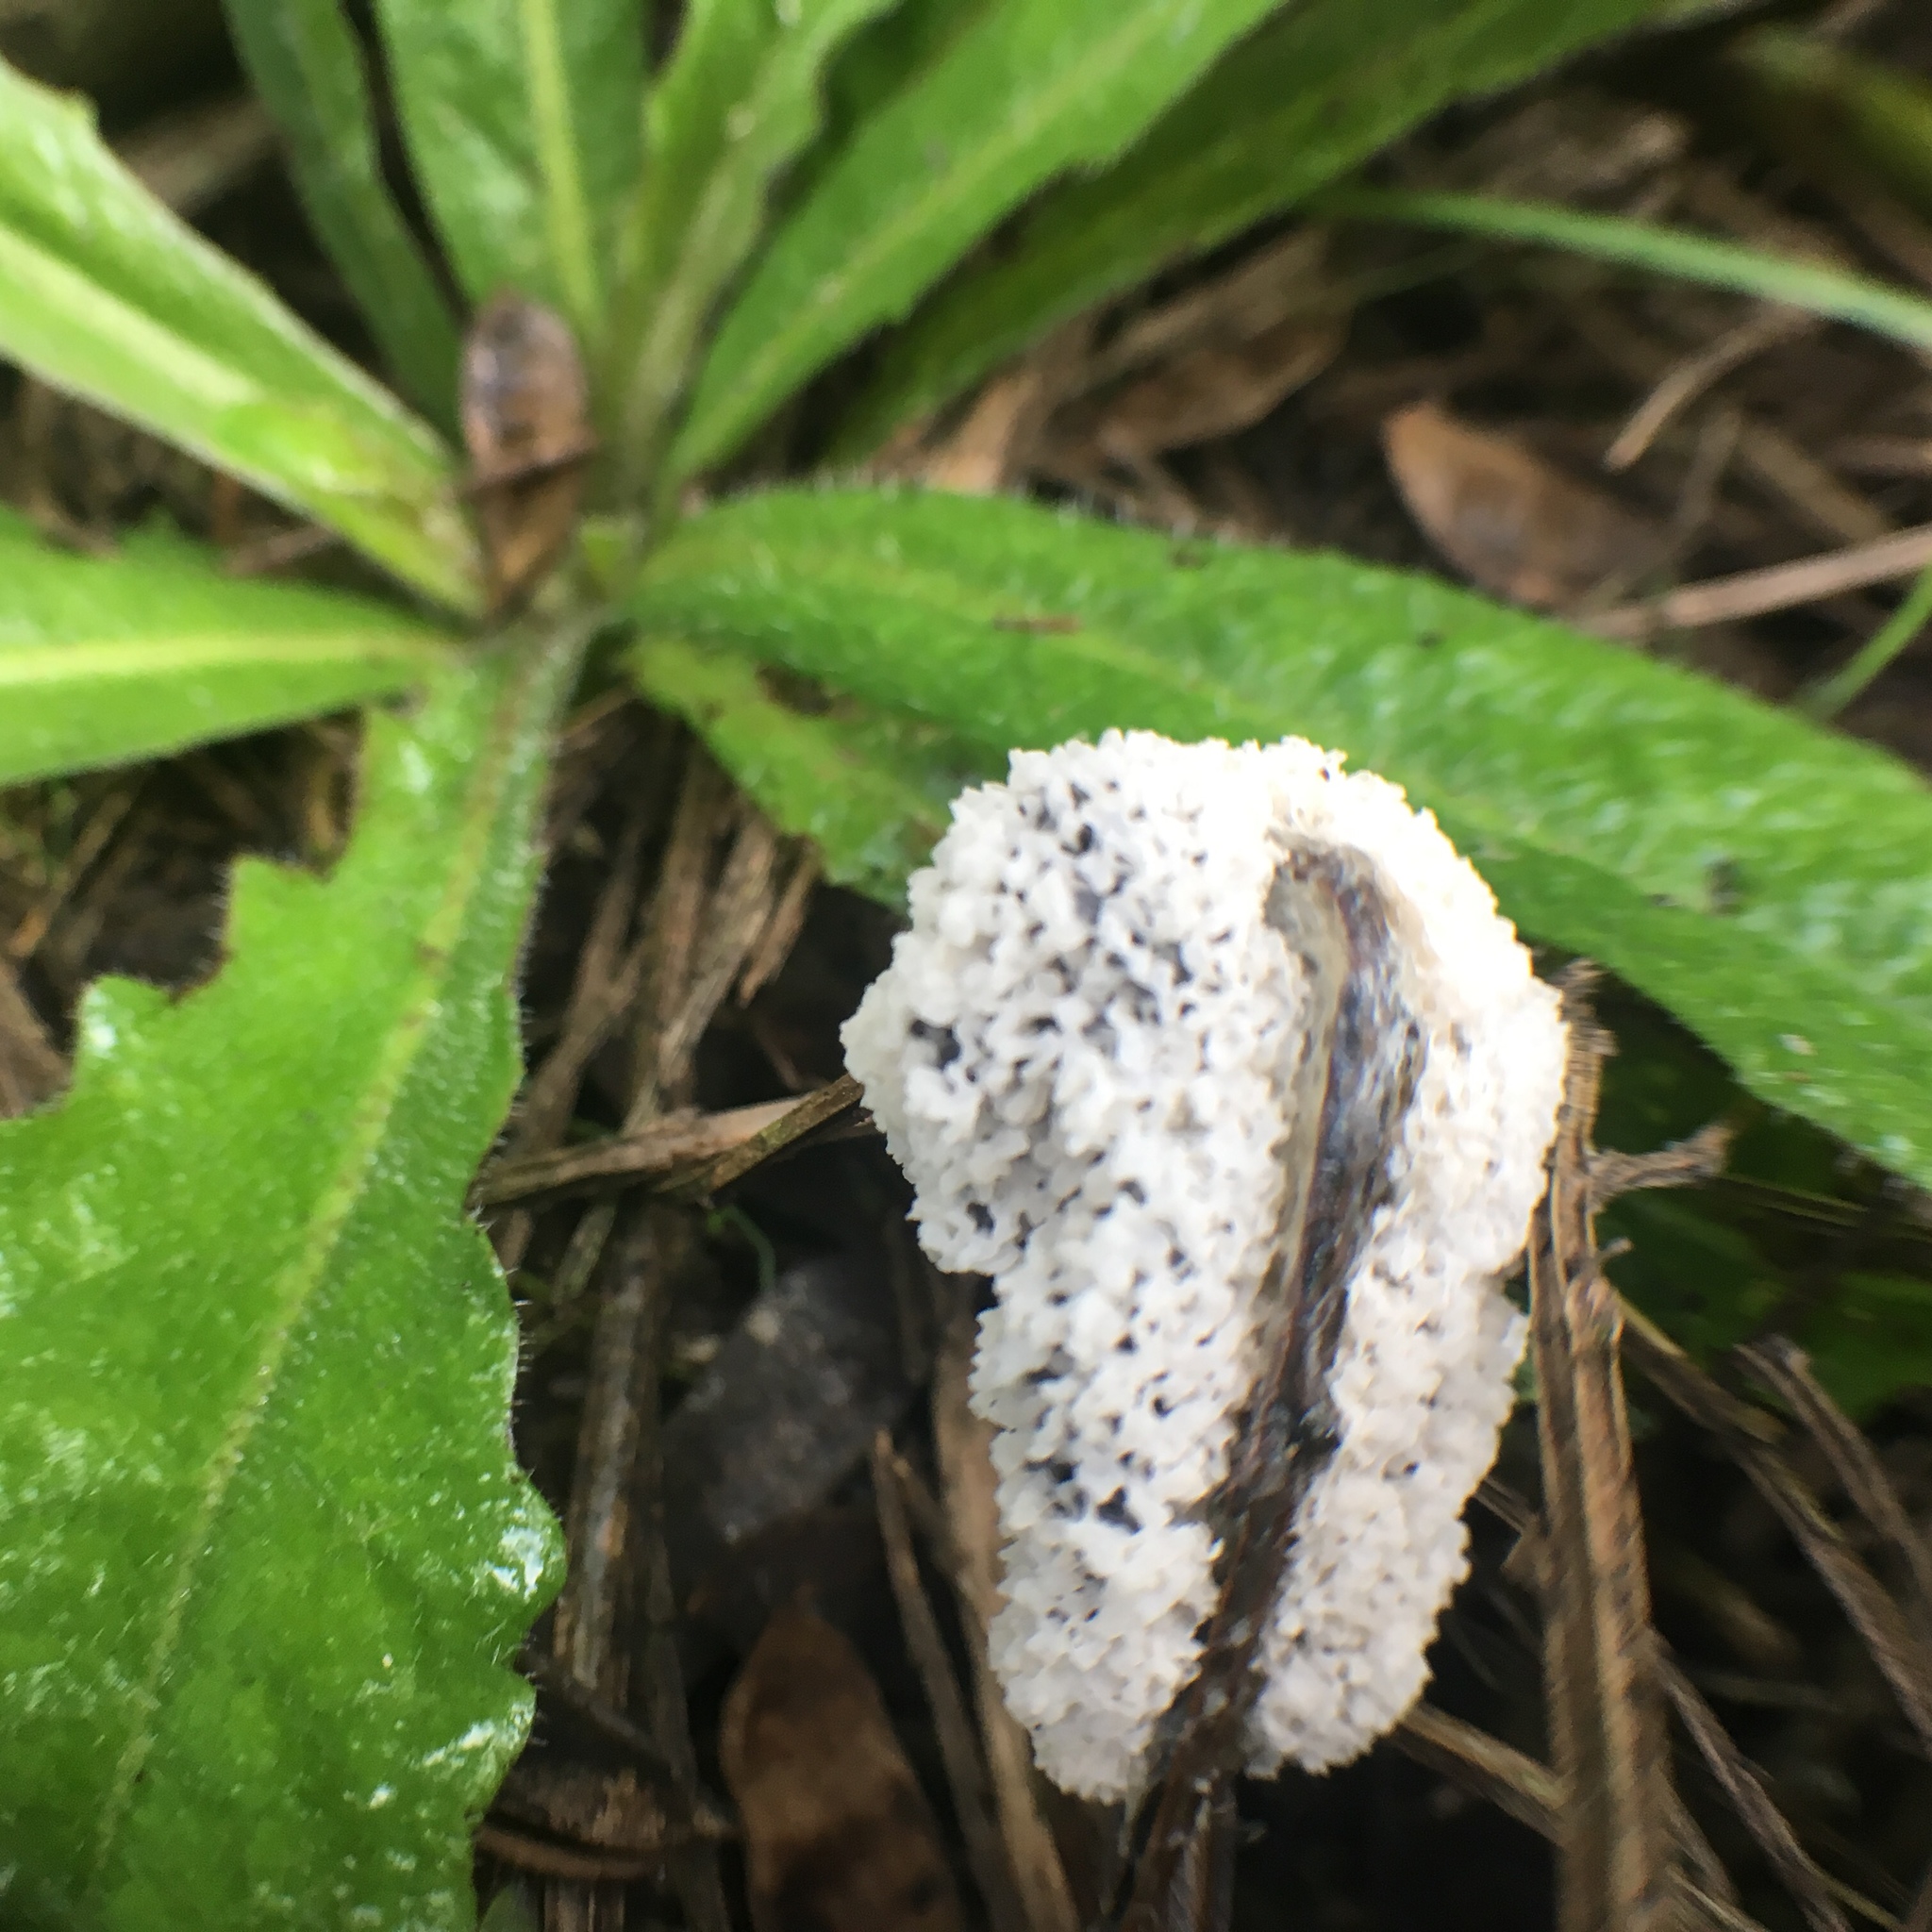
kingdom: Protozoa
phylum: Mycetozoa
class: Myxomycetes
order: Physarales
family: Physaraceae
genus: Didymium
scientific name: Didymium
